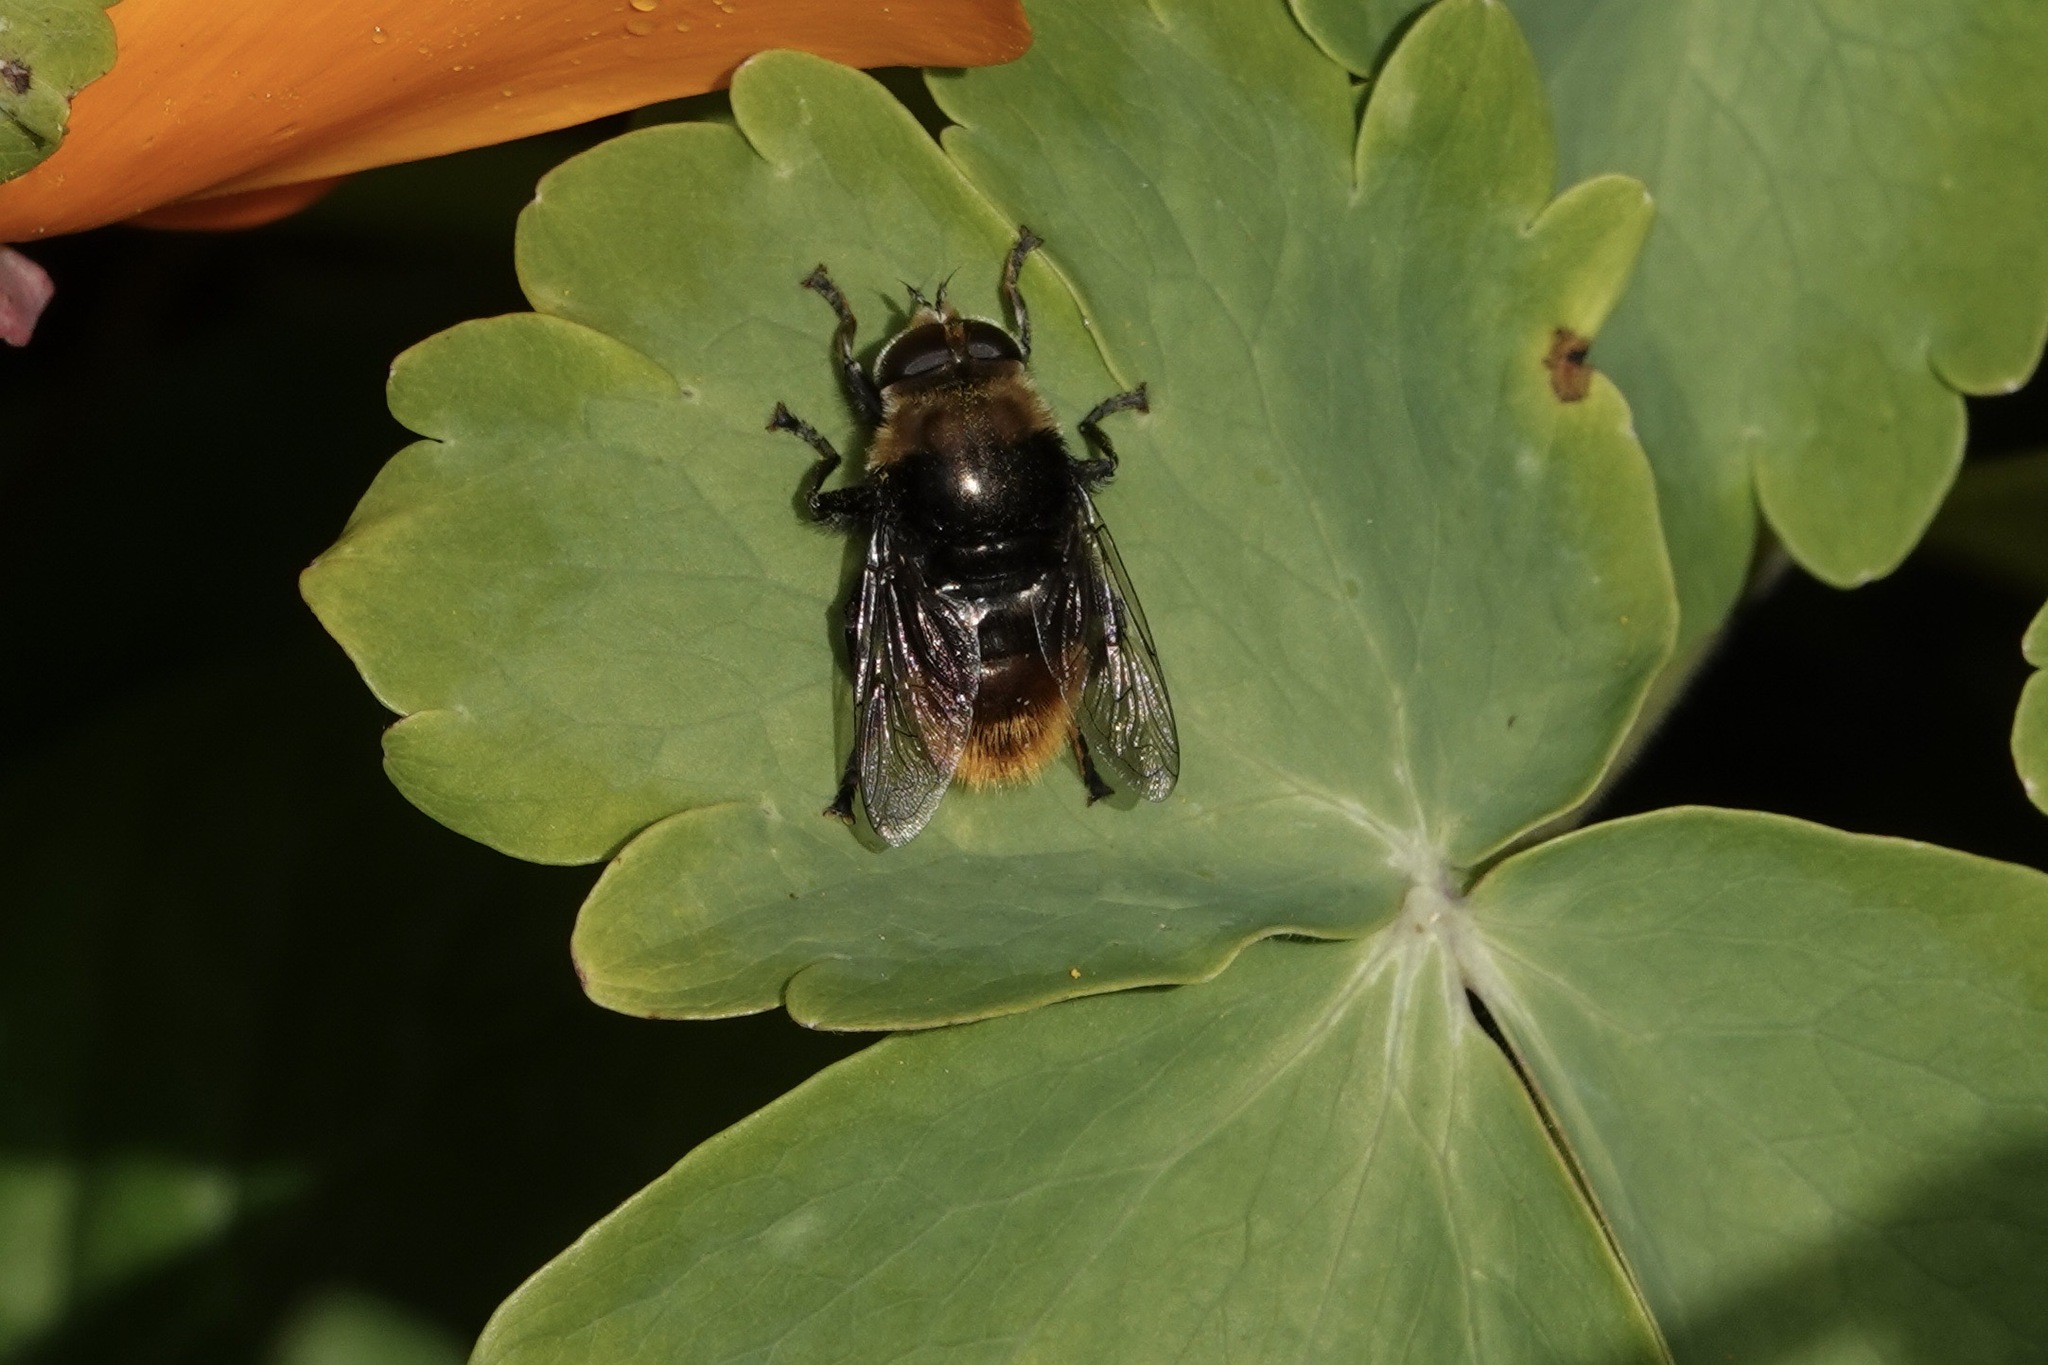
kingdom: Animalia
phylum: Arthropoda
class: Insecta
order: Diptera
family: Syrphidae
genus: Merodon
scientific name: Merodon equestris
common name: Greater bulb-fly
